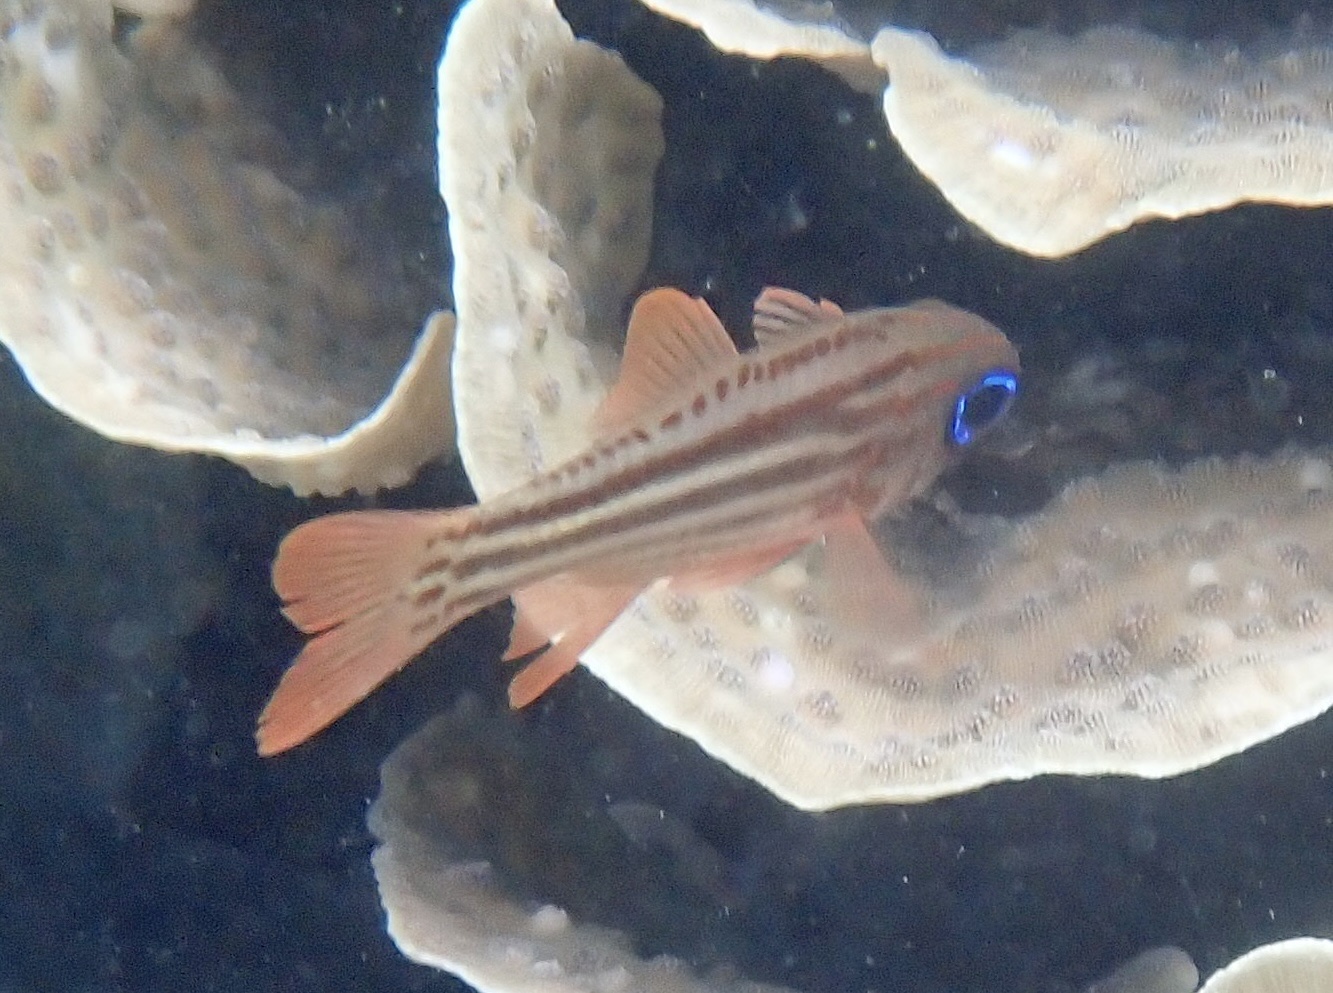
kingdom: Animalia
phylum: Chordata
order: Perciformes
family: Apogonidae
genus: Ostorhinchus
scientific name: Ostorhinchus compressus
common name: Ochre-striped cardinalfish
